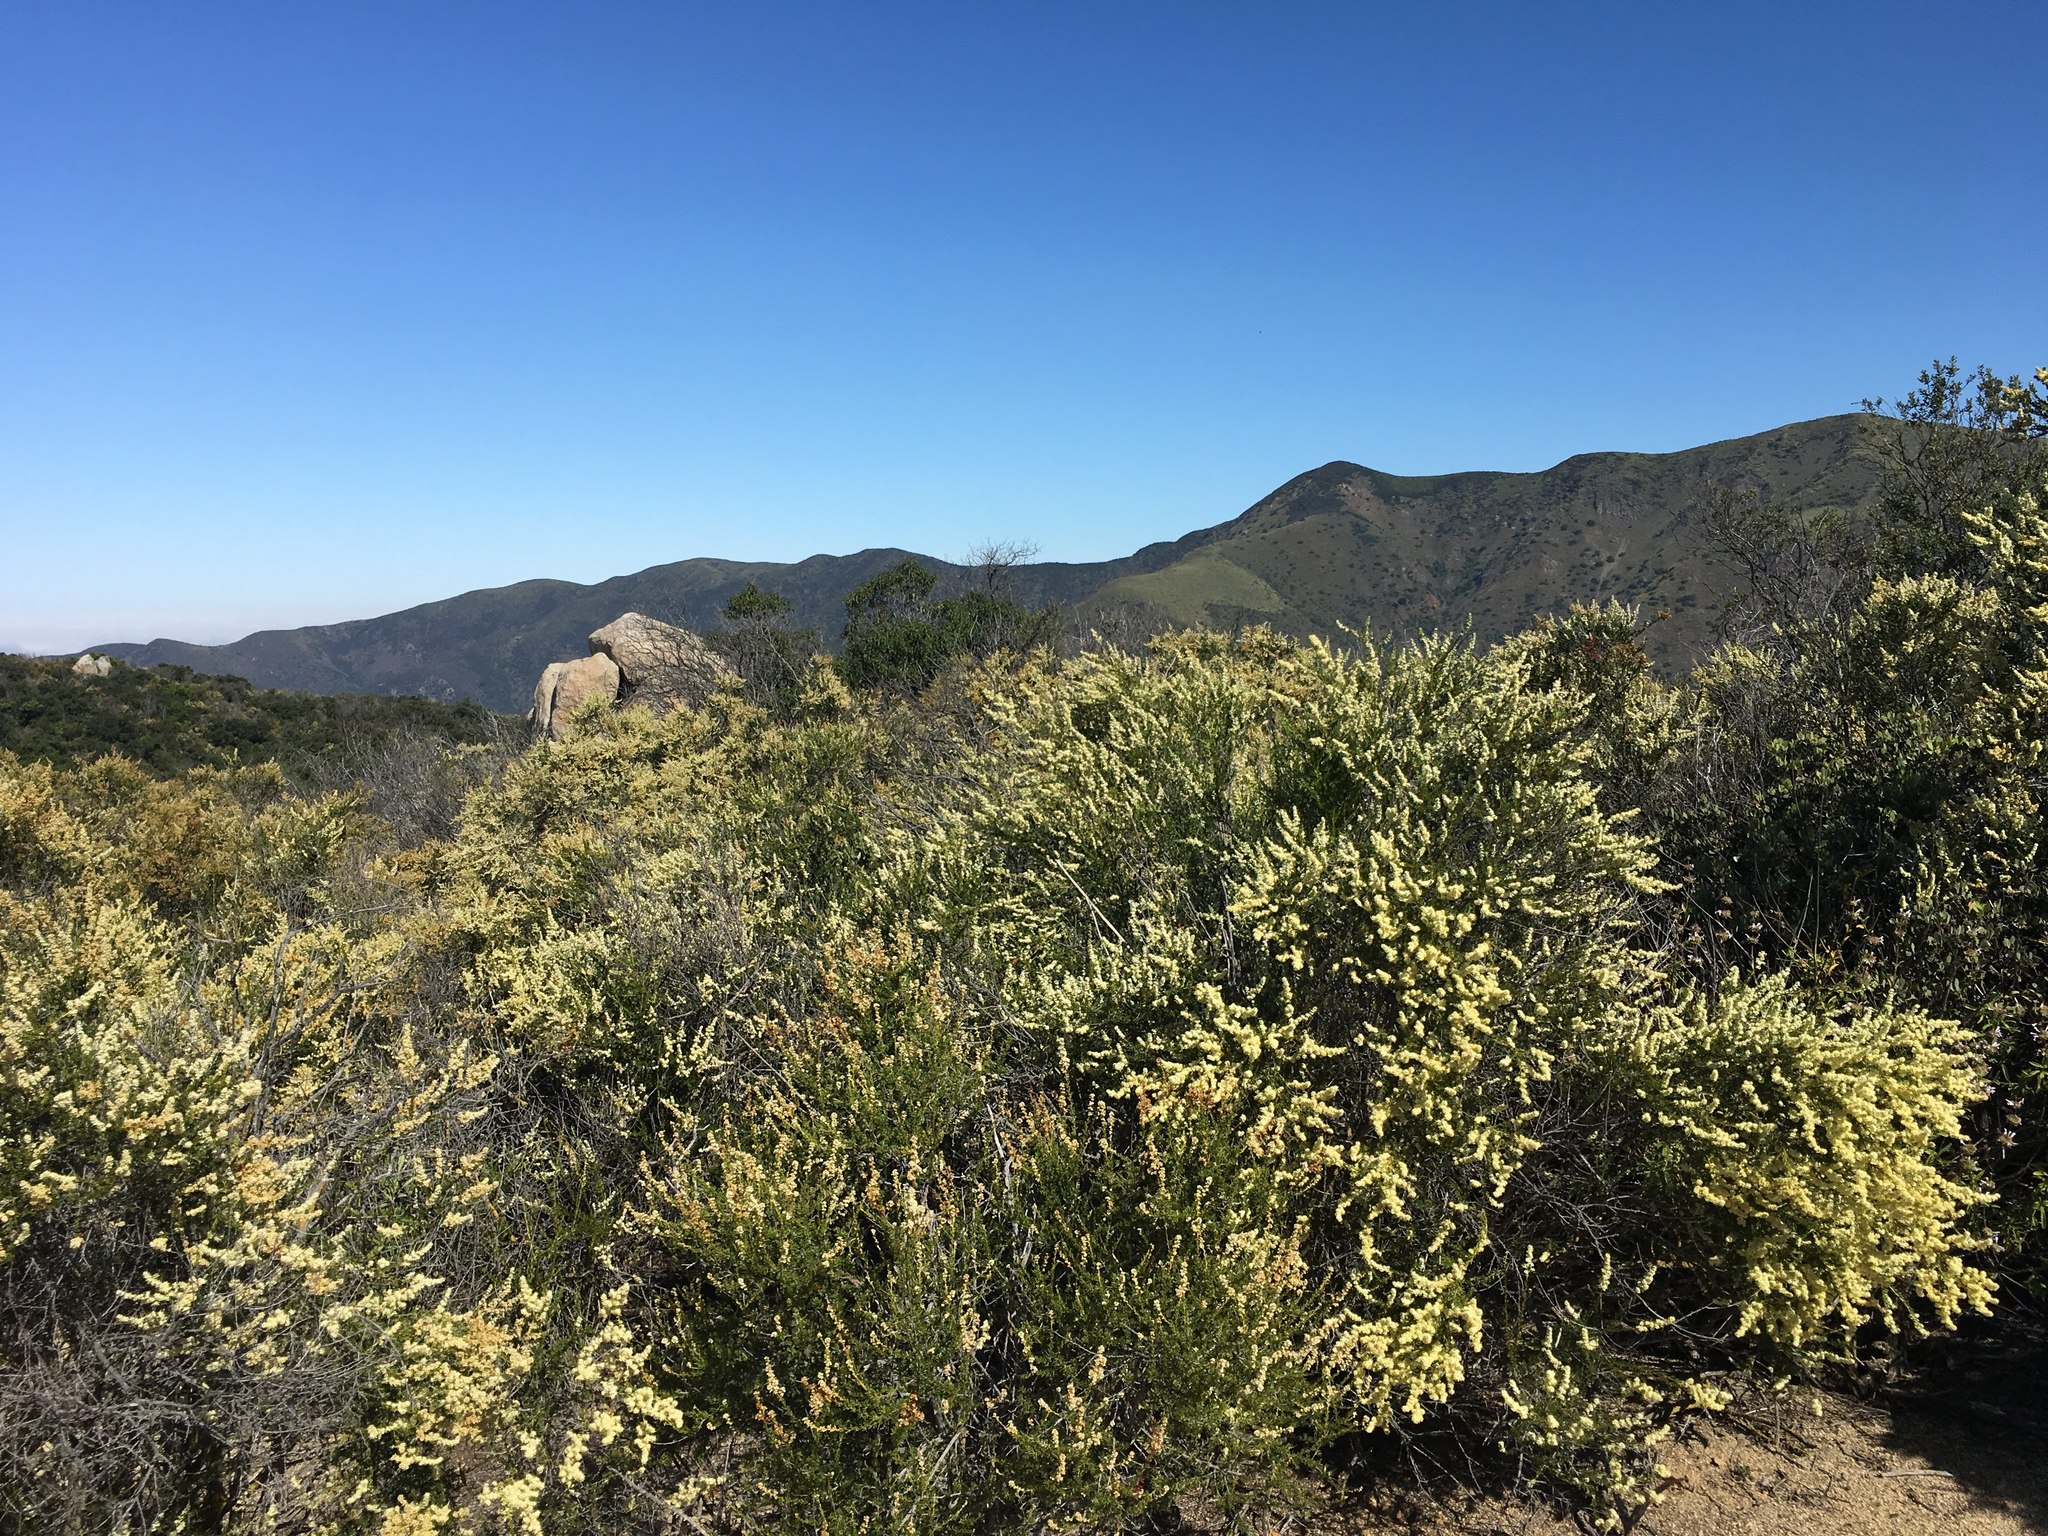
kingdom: Plantae
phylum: Tracheophyta
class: Magnoliopsida
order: Rosales
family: Rosaceae
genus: Adenostoma
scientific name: Adenostoma fasciculatum
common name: Chamise
